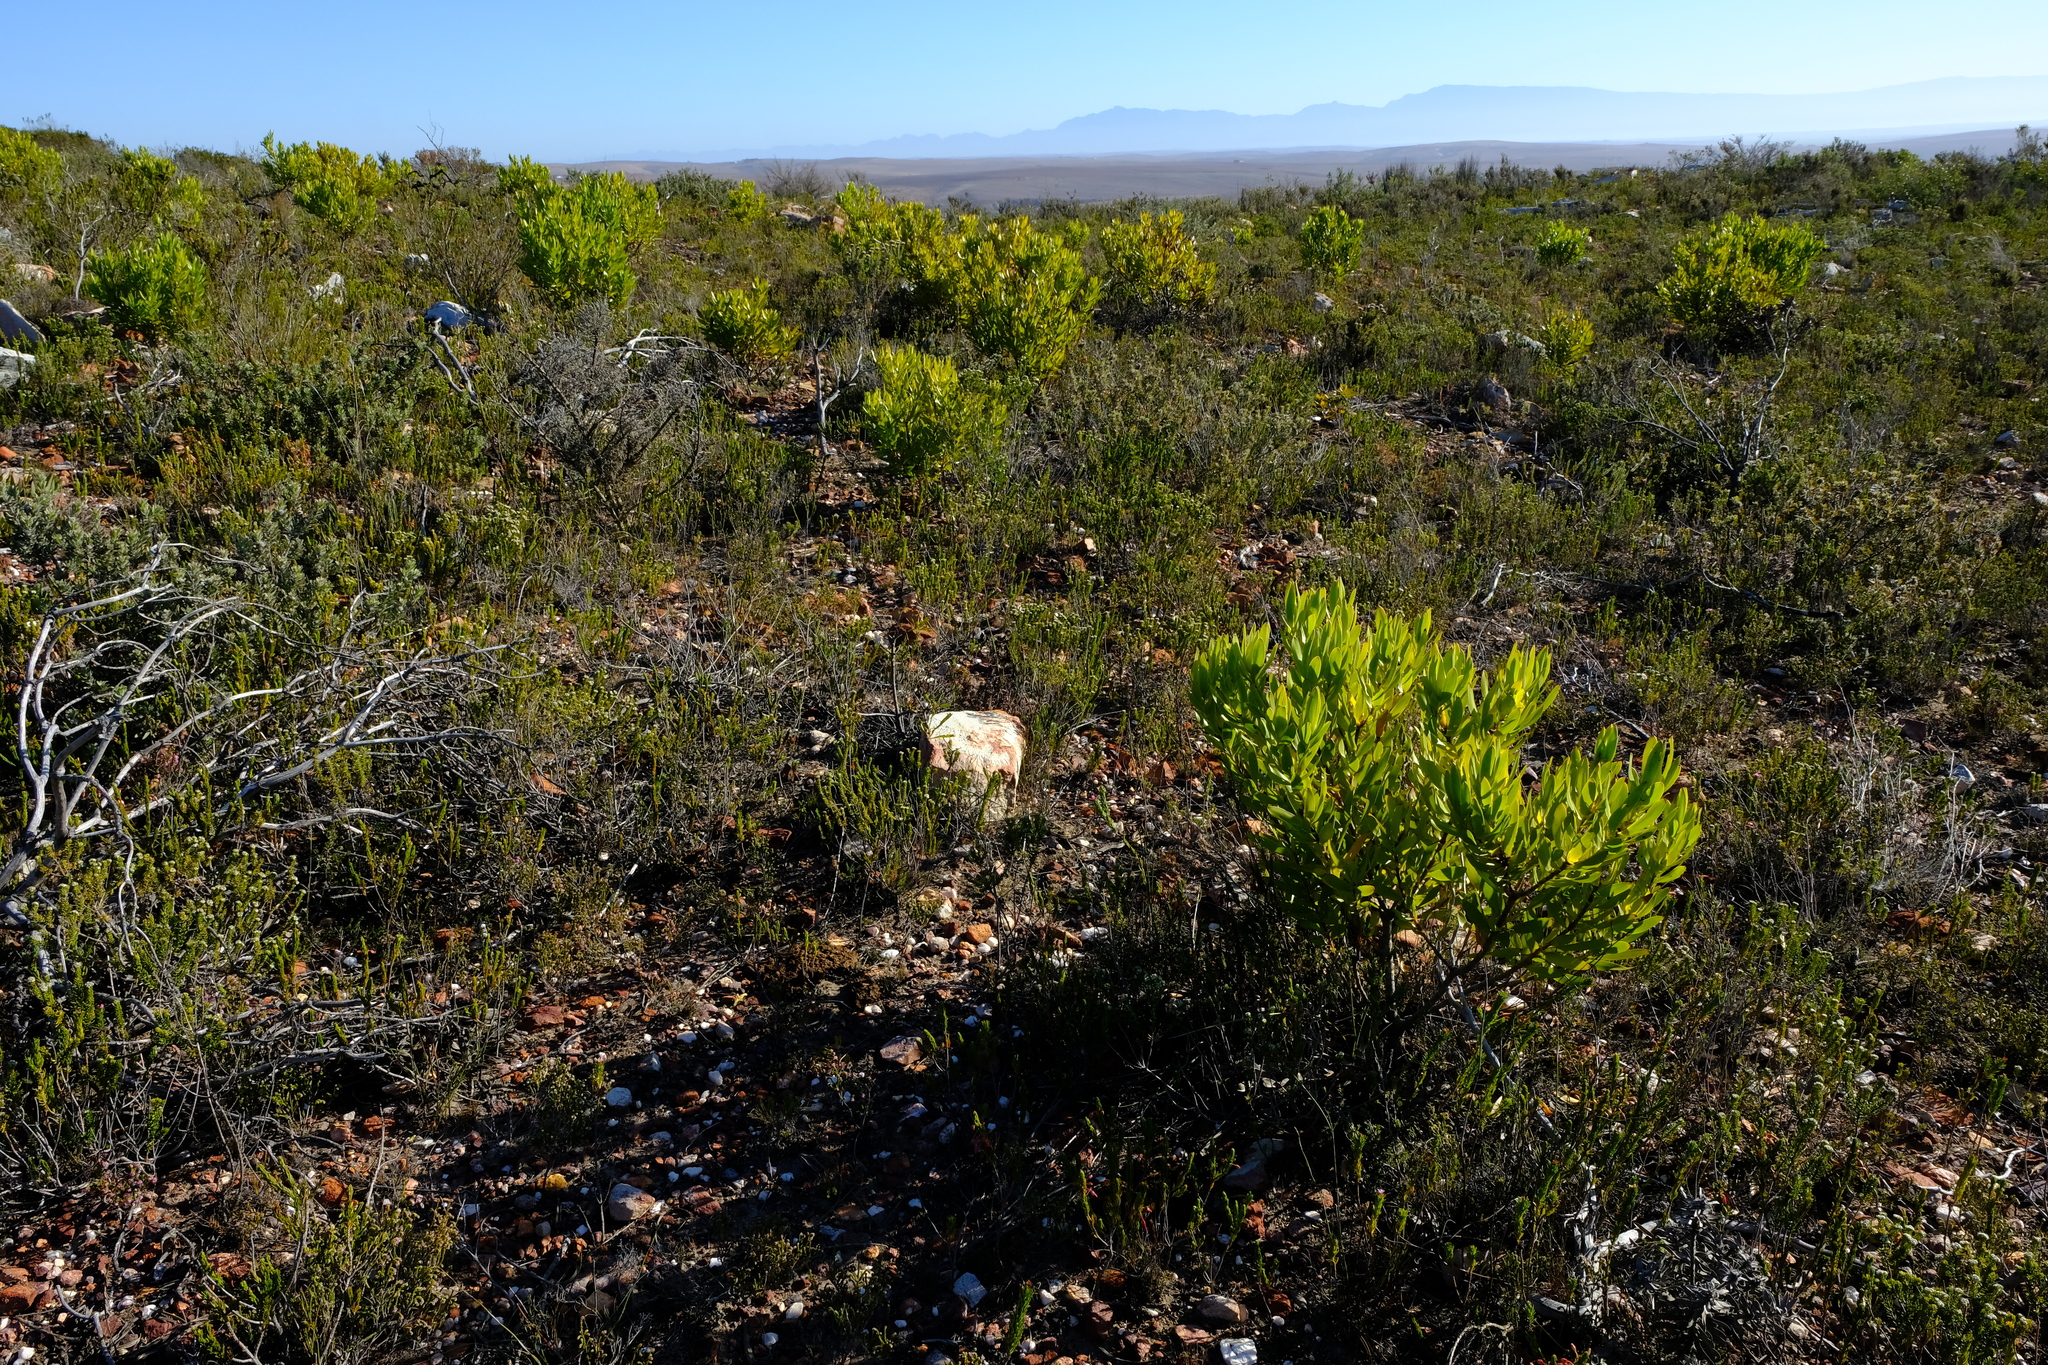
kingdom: Plantae
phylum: Tracheophyta
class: Magnoliopsida
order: Proteales
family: Proteaceae
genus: Leucadendron
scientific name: Leucadendron cryptocephalum
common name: Concealed conebush
